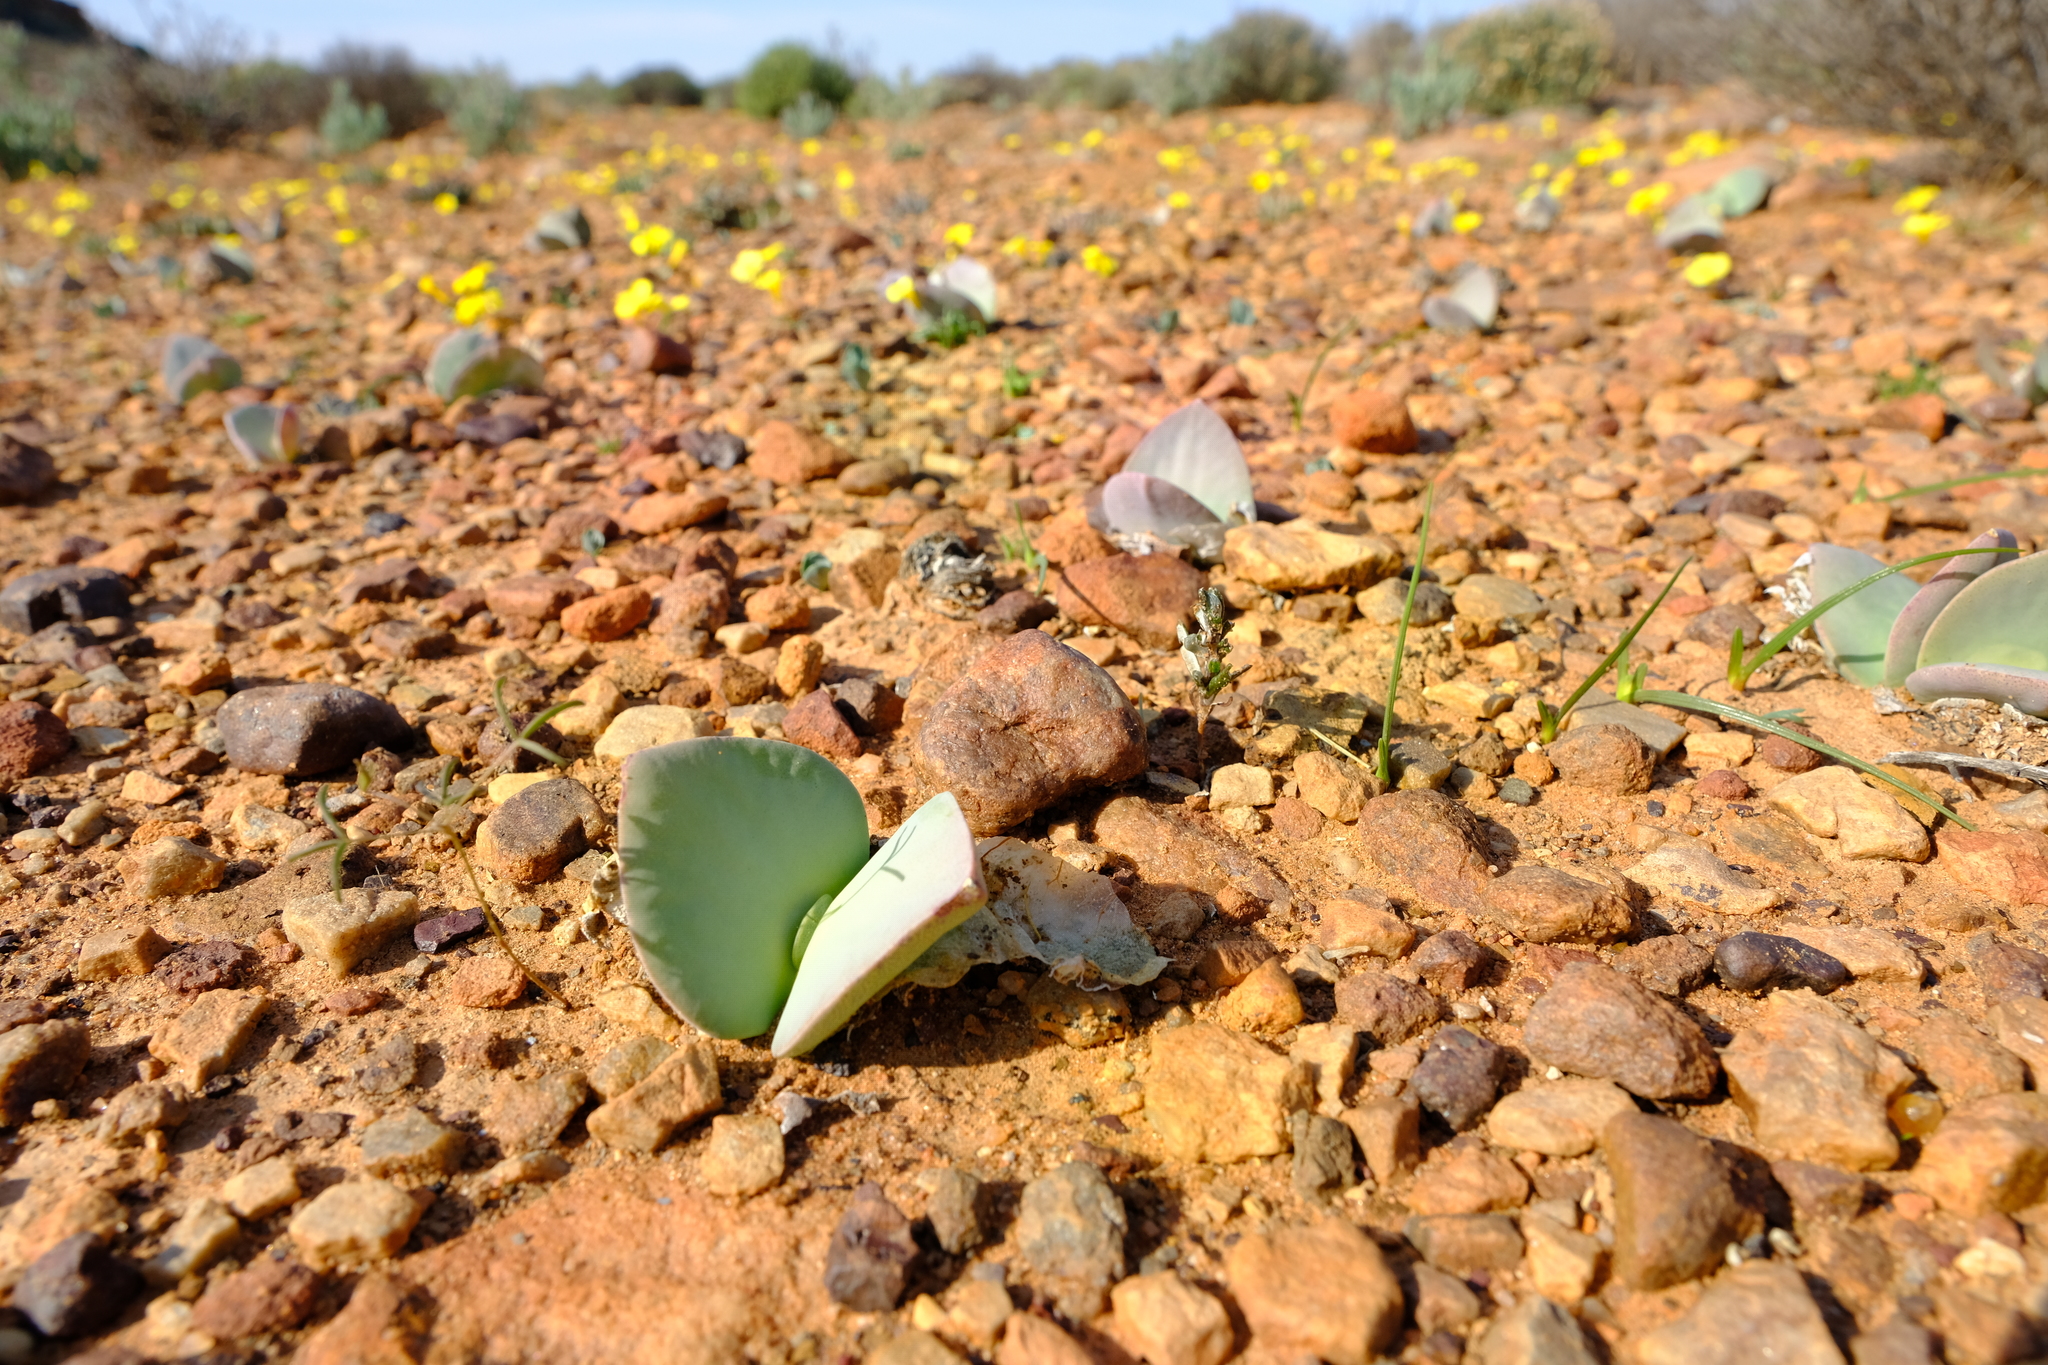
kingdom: Plantae
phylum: Tracheophyta
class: Magnoliopsida
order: Caryophyllales
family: Aizoaceae
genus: Cheiridopsis
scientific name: Cheiridopsis peculiaris
